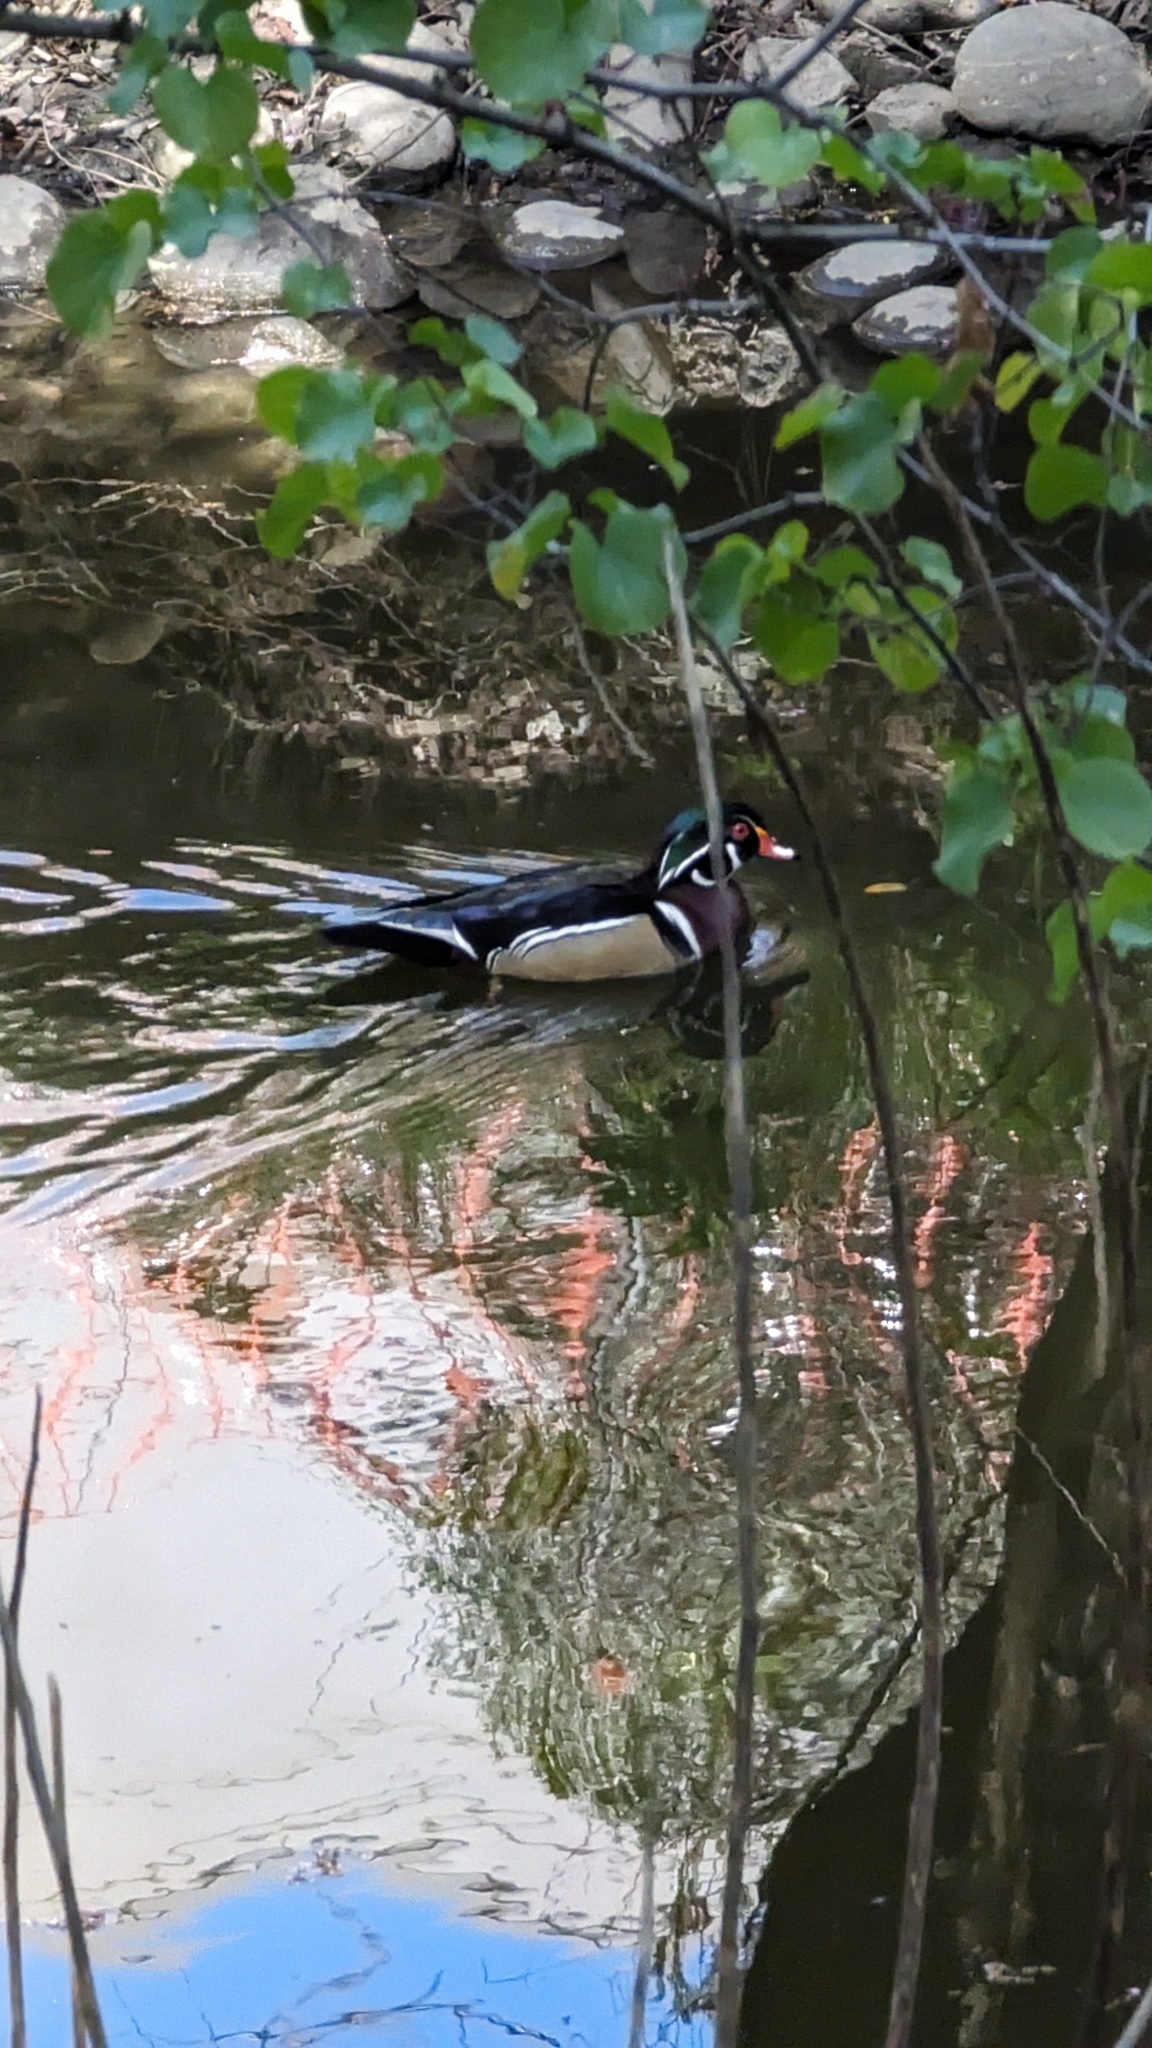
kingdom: Animalia
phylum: Chordata
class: Aves
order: Anseriformes
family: Anatidae
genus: Aix
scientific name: Aix sponsa
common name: Wood duck
